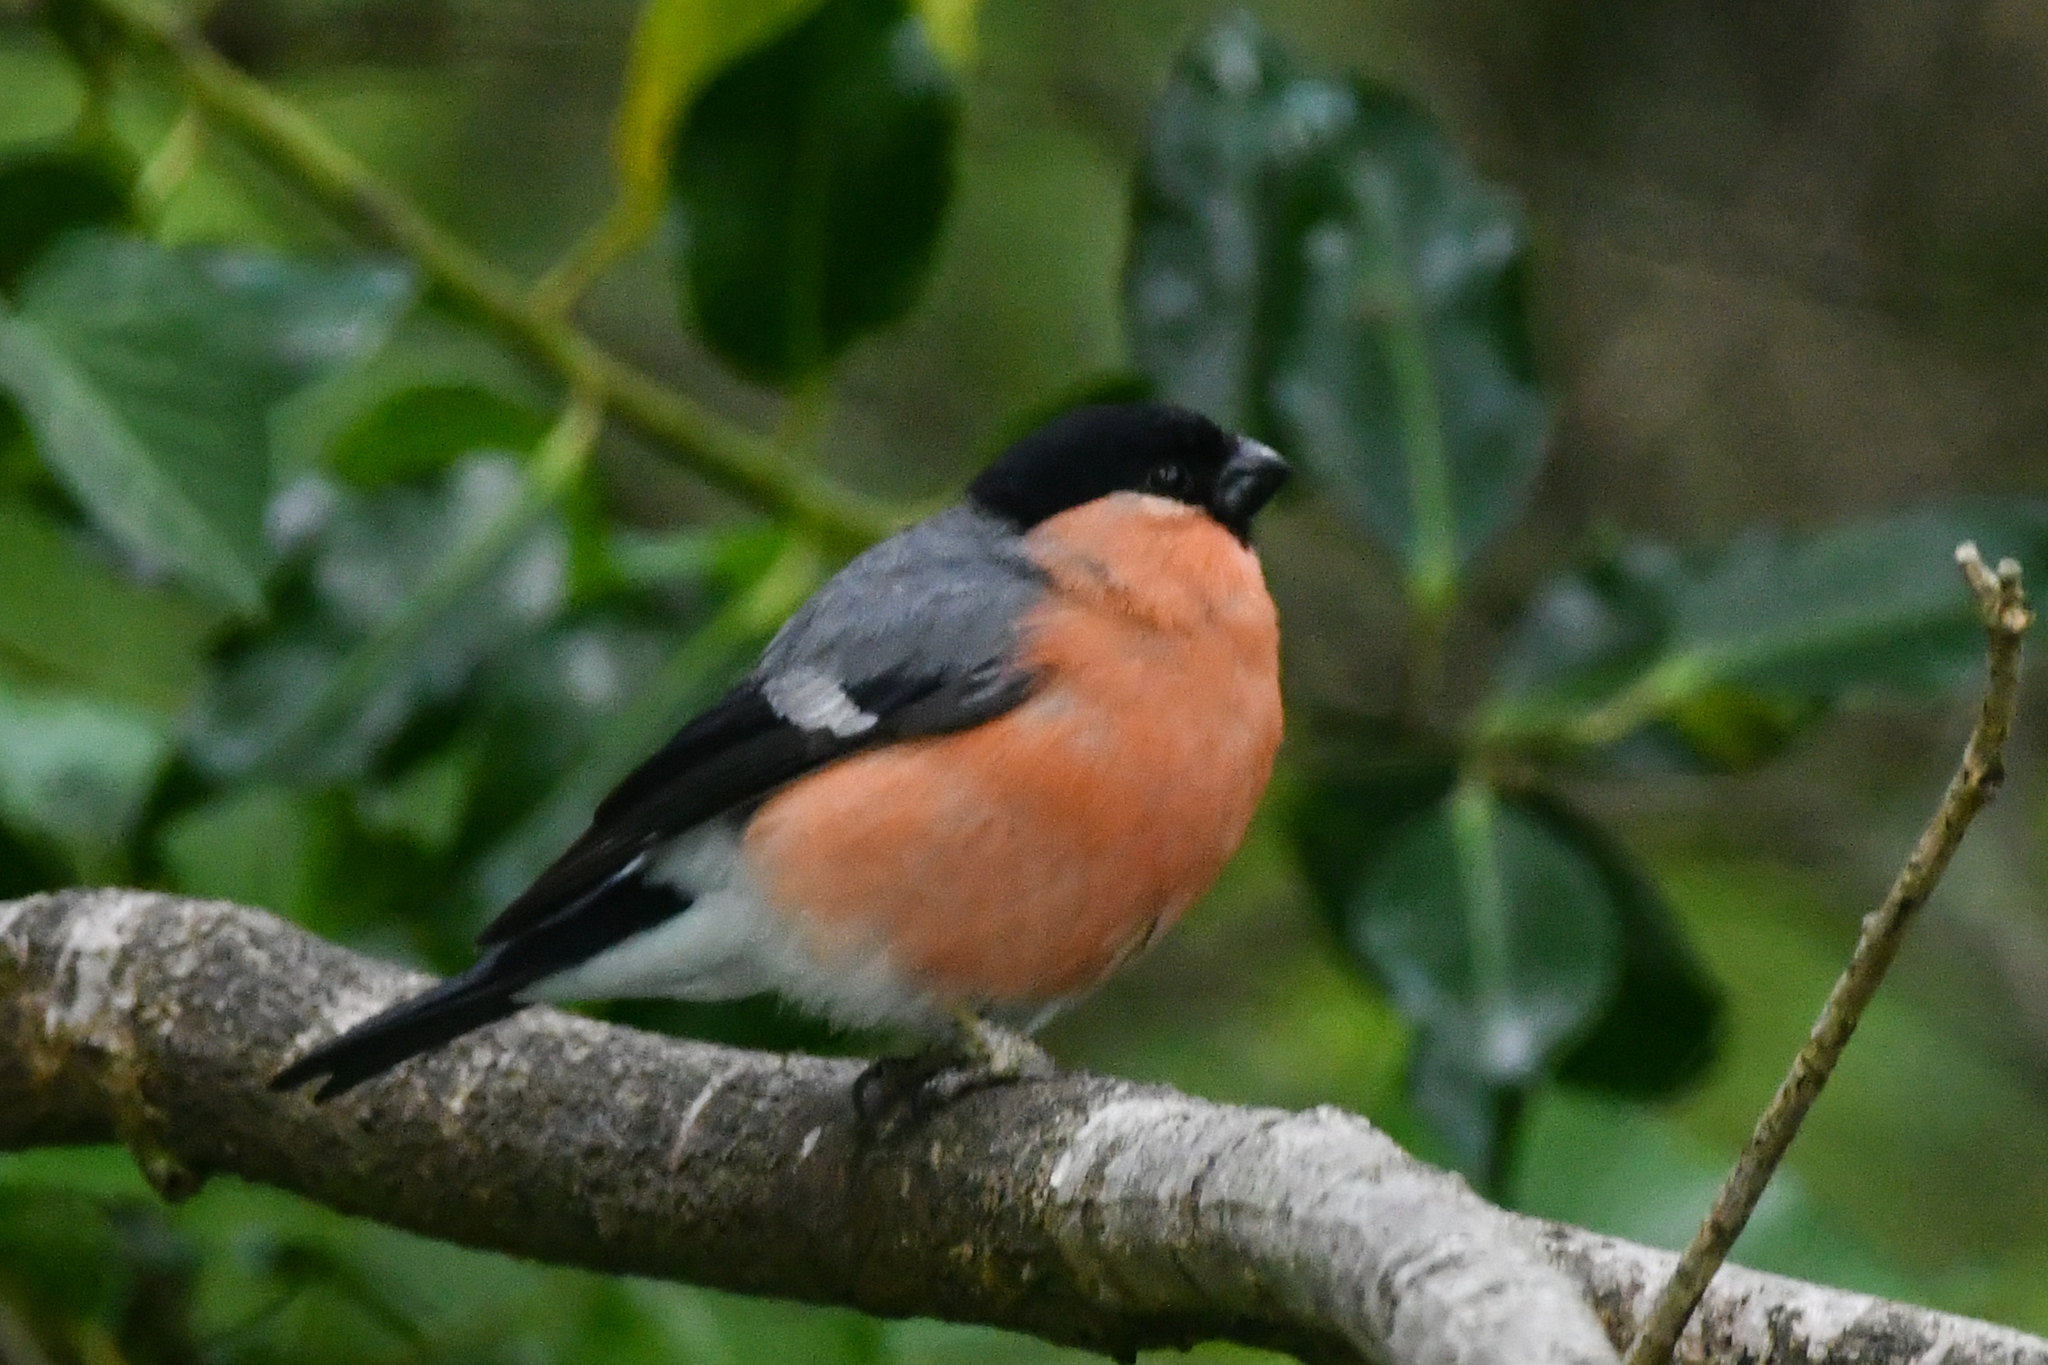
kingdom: Animalia
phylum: Chordata
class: Aves
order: Passeriformes
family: Fringillidae
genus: Pyrrhula
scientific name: Pyrrhula pyrrhula
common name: Eurasian bullfinch
